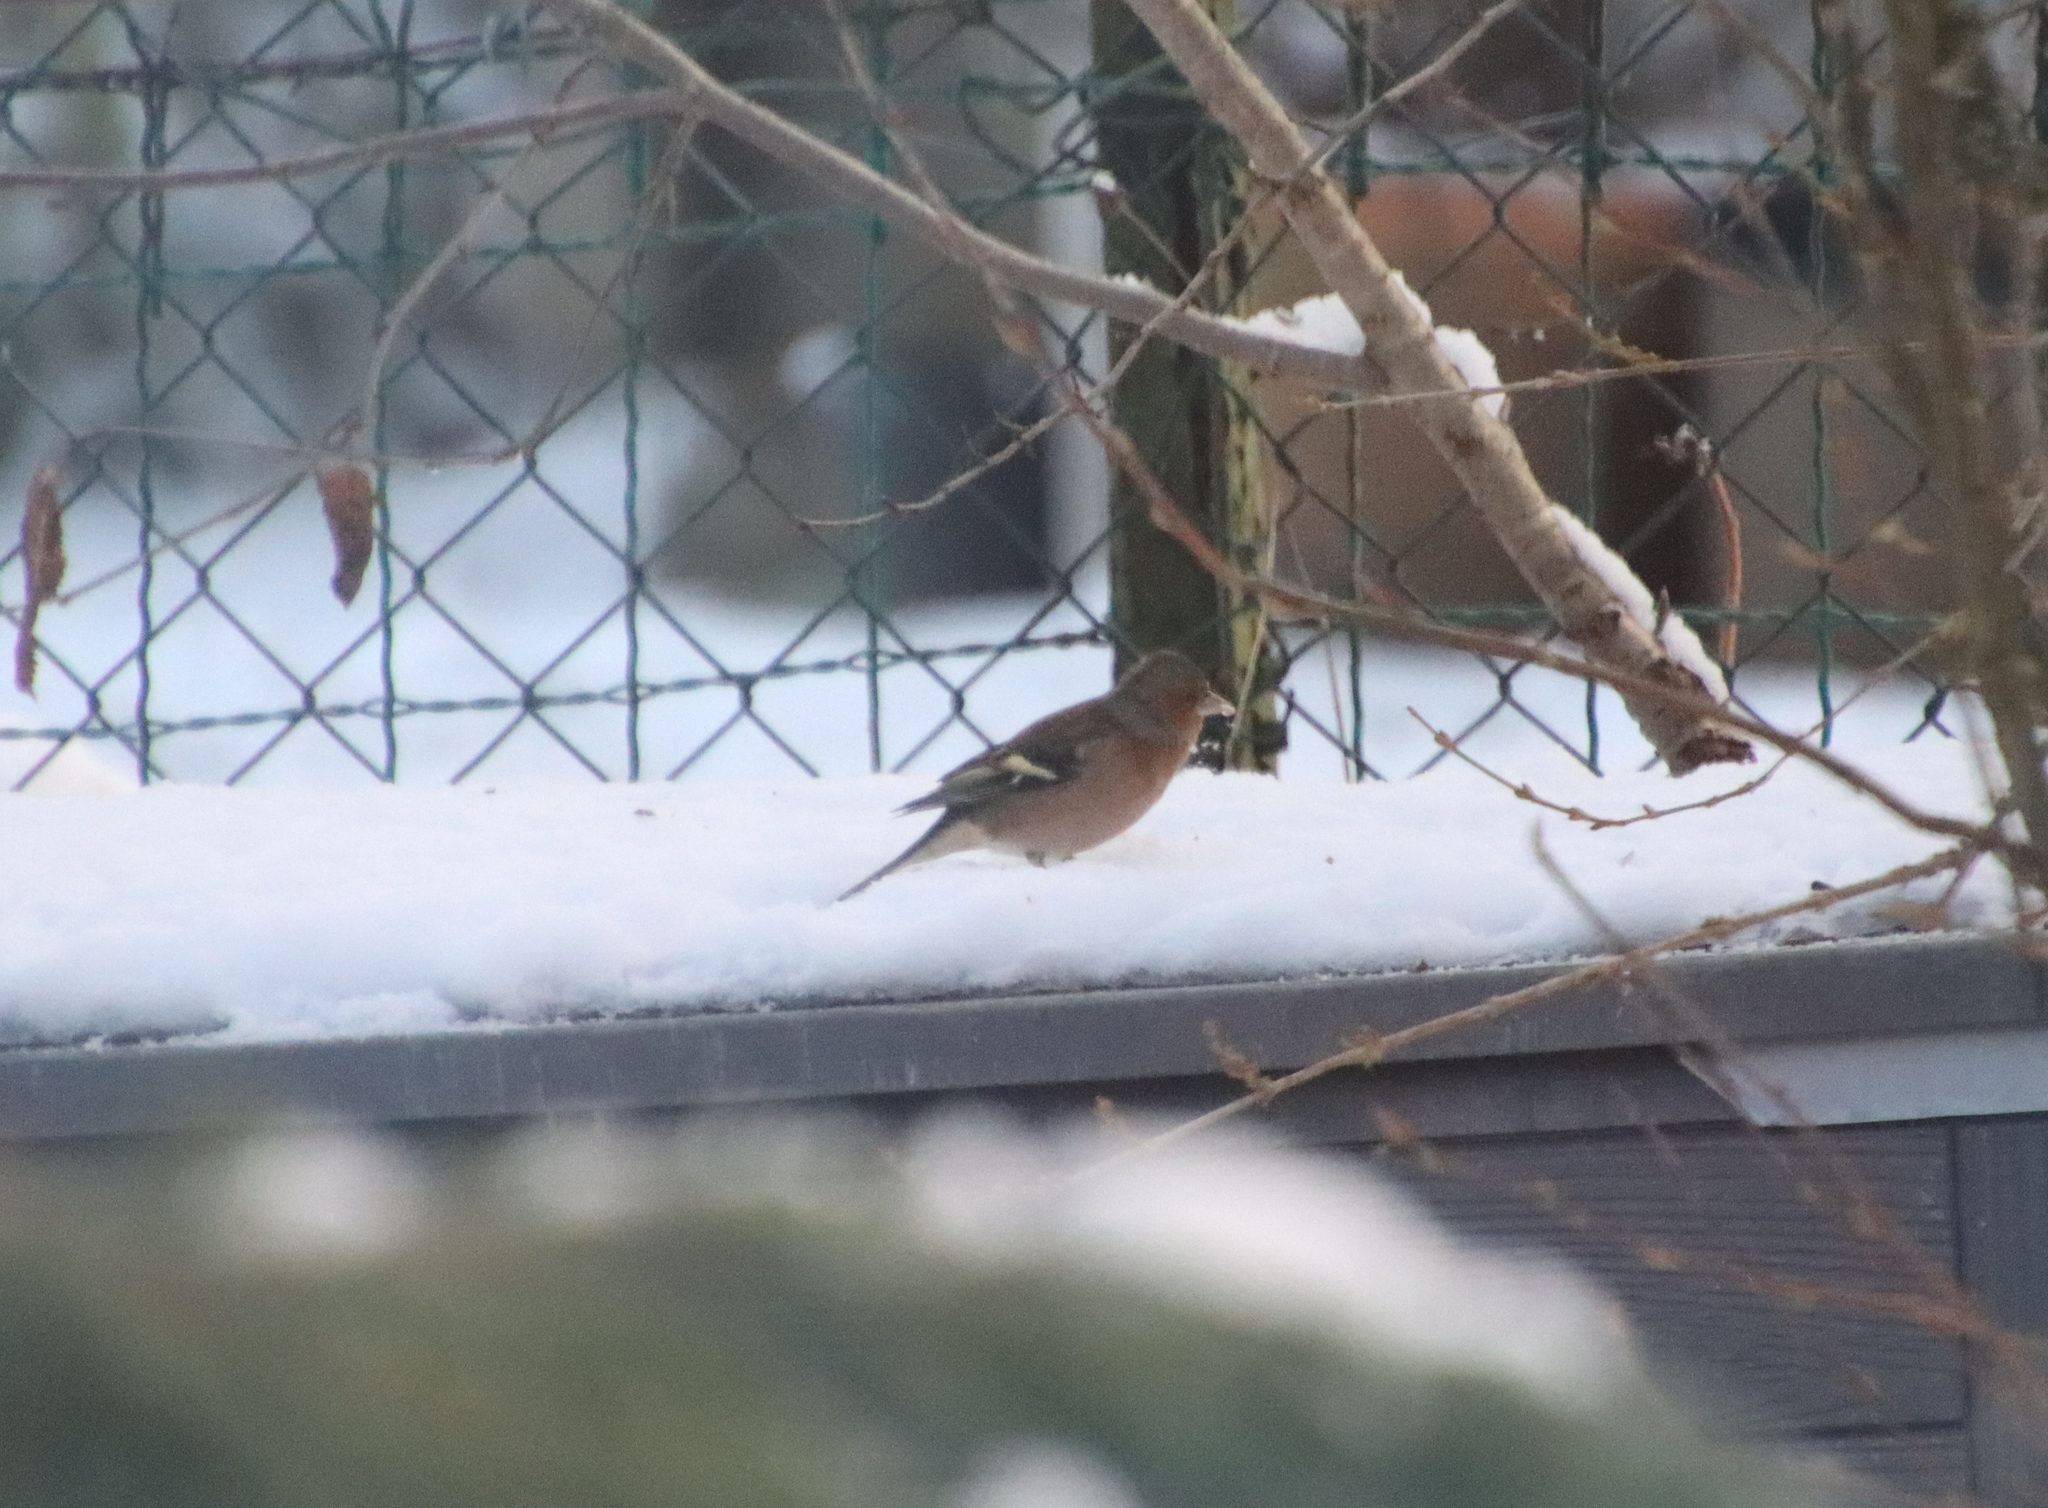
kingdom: Animalia
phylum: Chordata
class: Aves
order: Passeriformes
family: Fringillidae
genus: Fringilla
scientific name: Fringilla coelebs
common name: Common chaffinch
